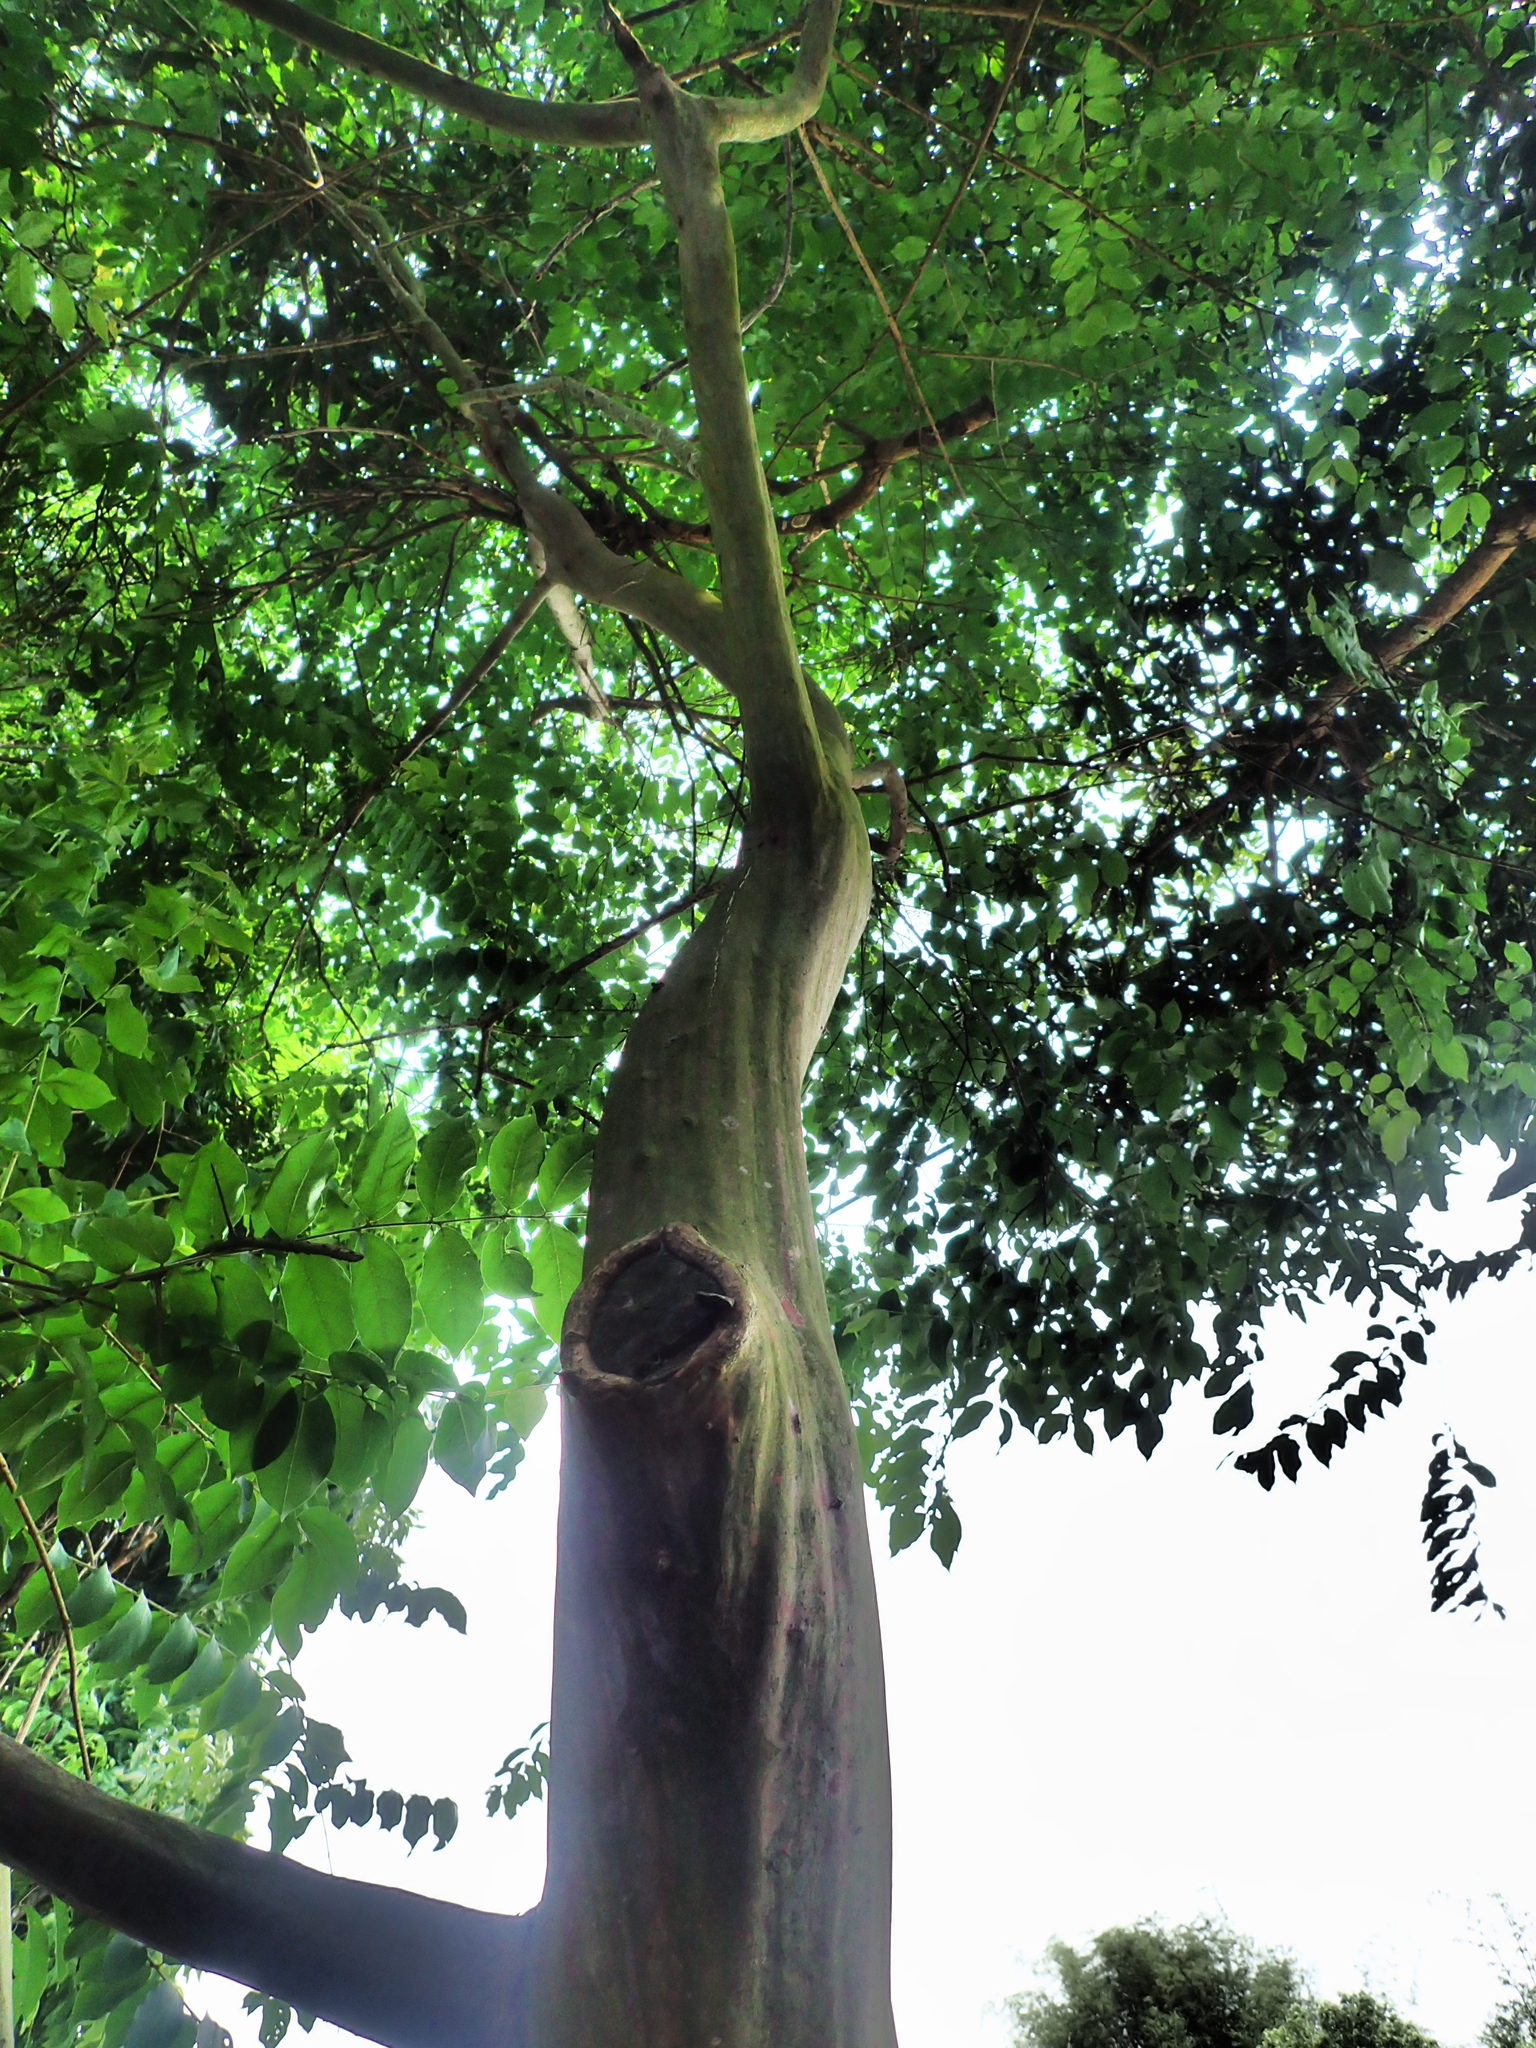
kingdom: Plantae
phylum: Tracheophyta
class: Magnoliopsida
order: Myrtales
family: Lythraceae
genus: Lagerstroemia
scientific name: Lagerstroemia subcostata
